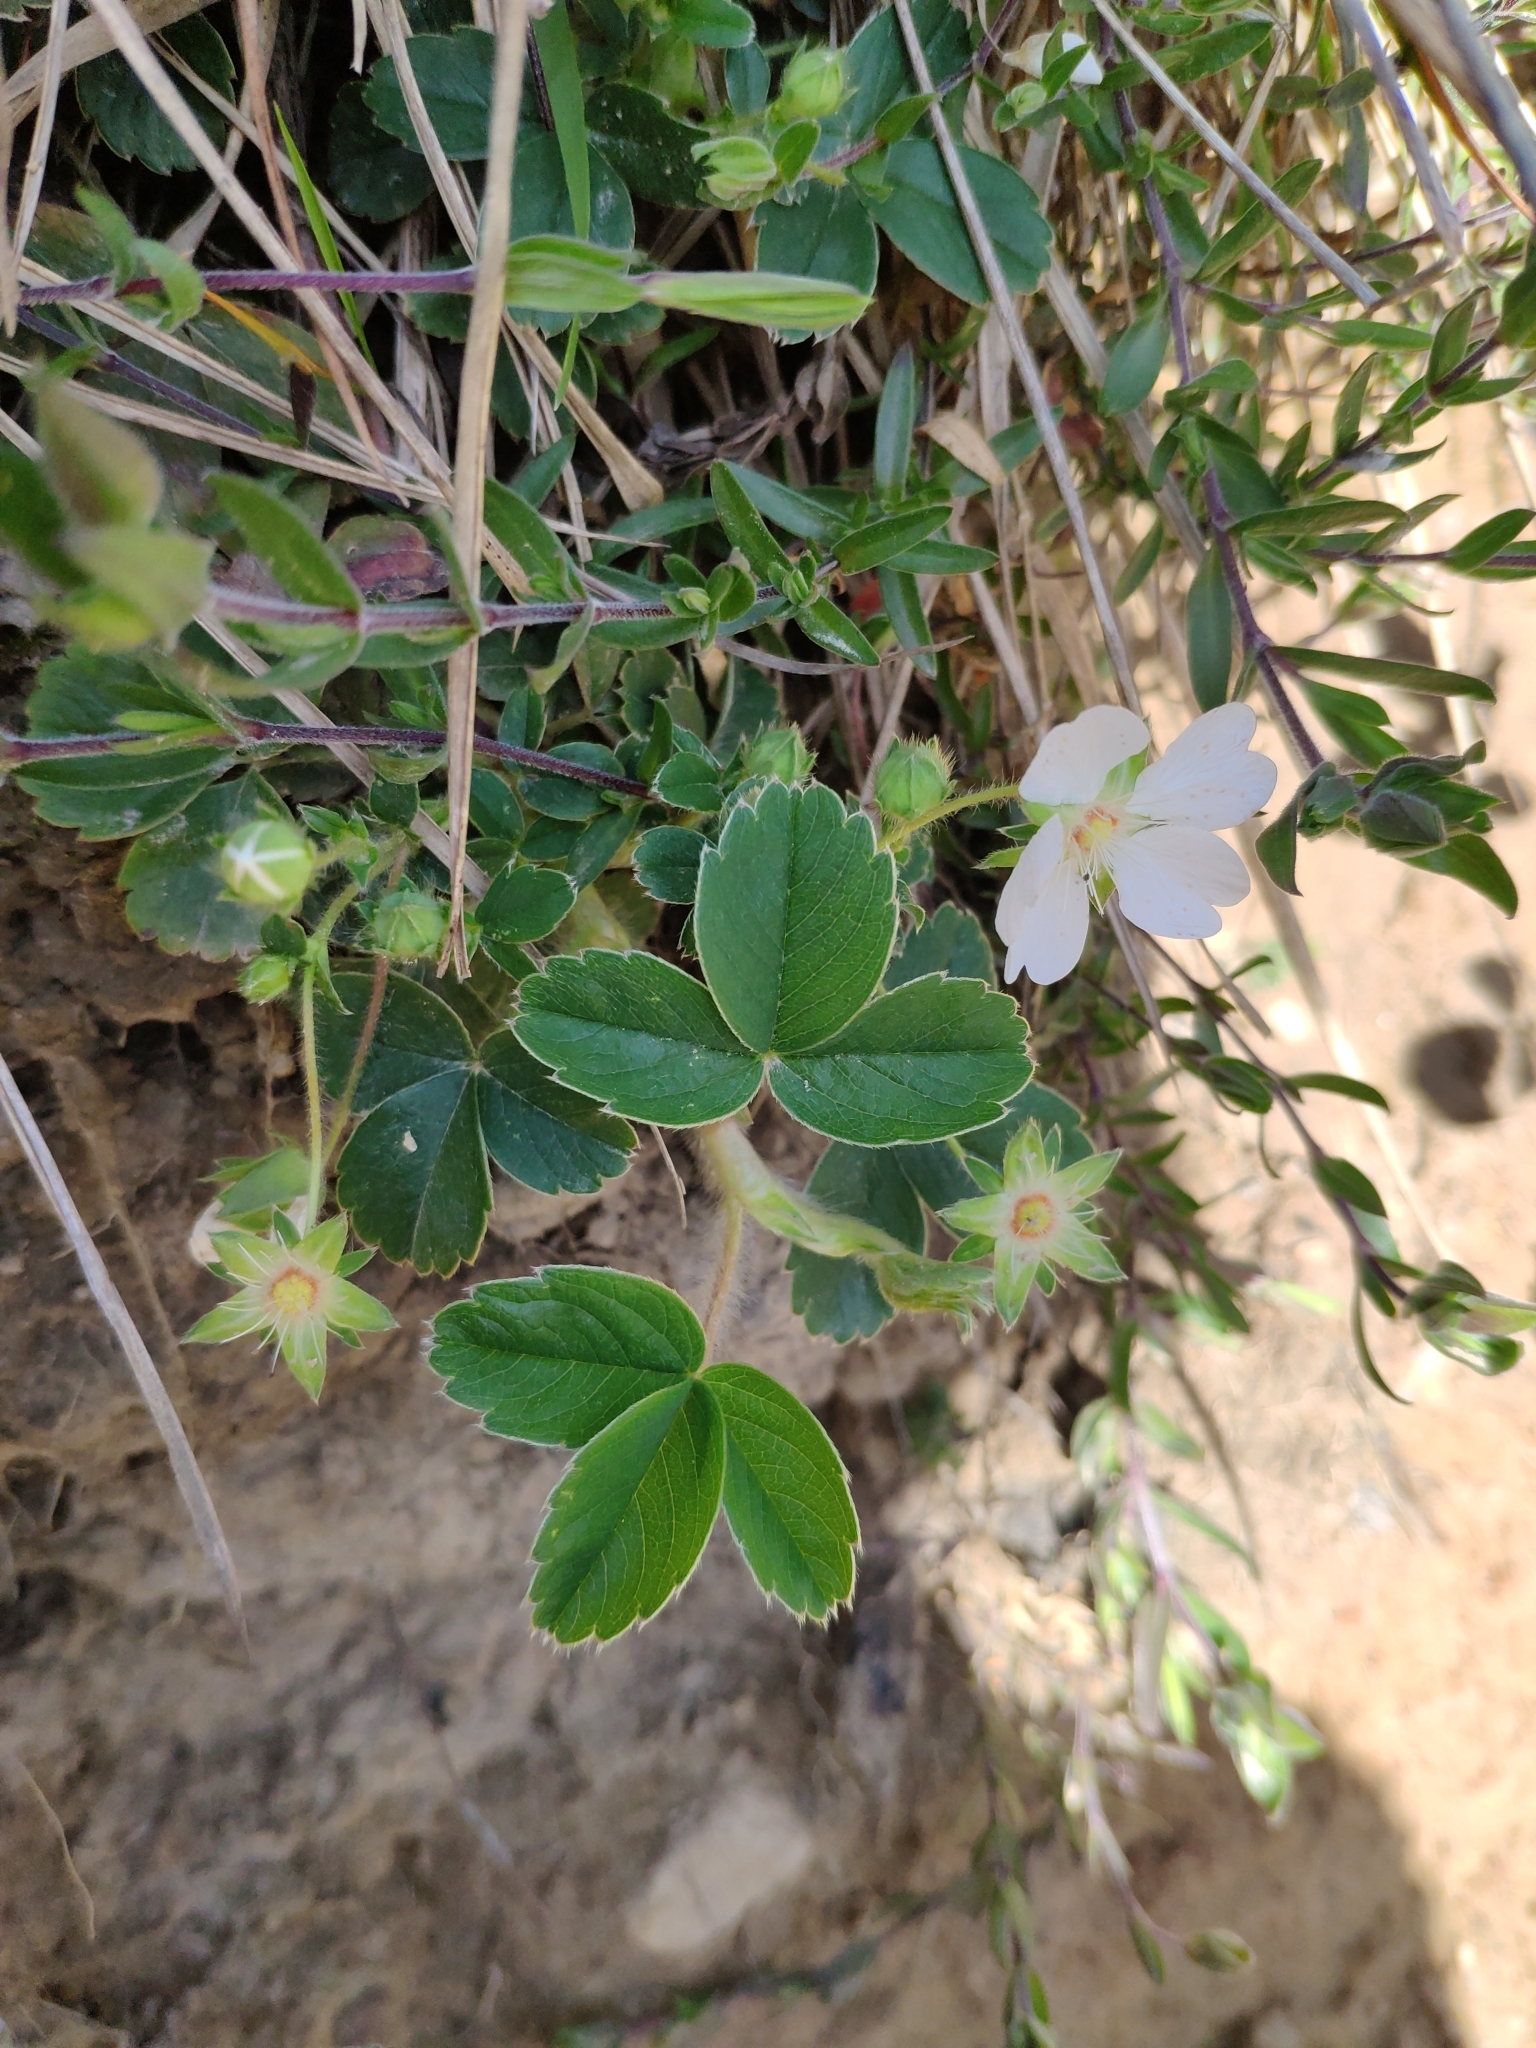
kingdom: Plantae
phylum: Tracheophyta
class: Magnoliopsida
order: Rosales
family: Rosaceae
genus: Potentilla
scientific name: Potentilla montana
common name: Mountain cinquefoil
